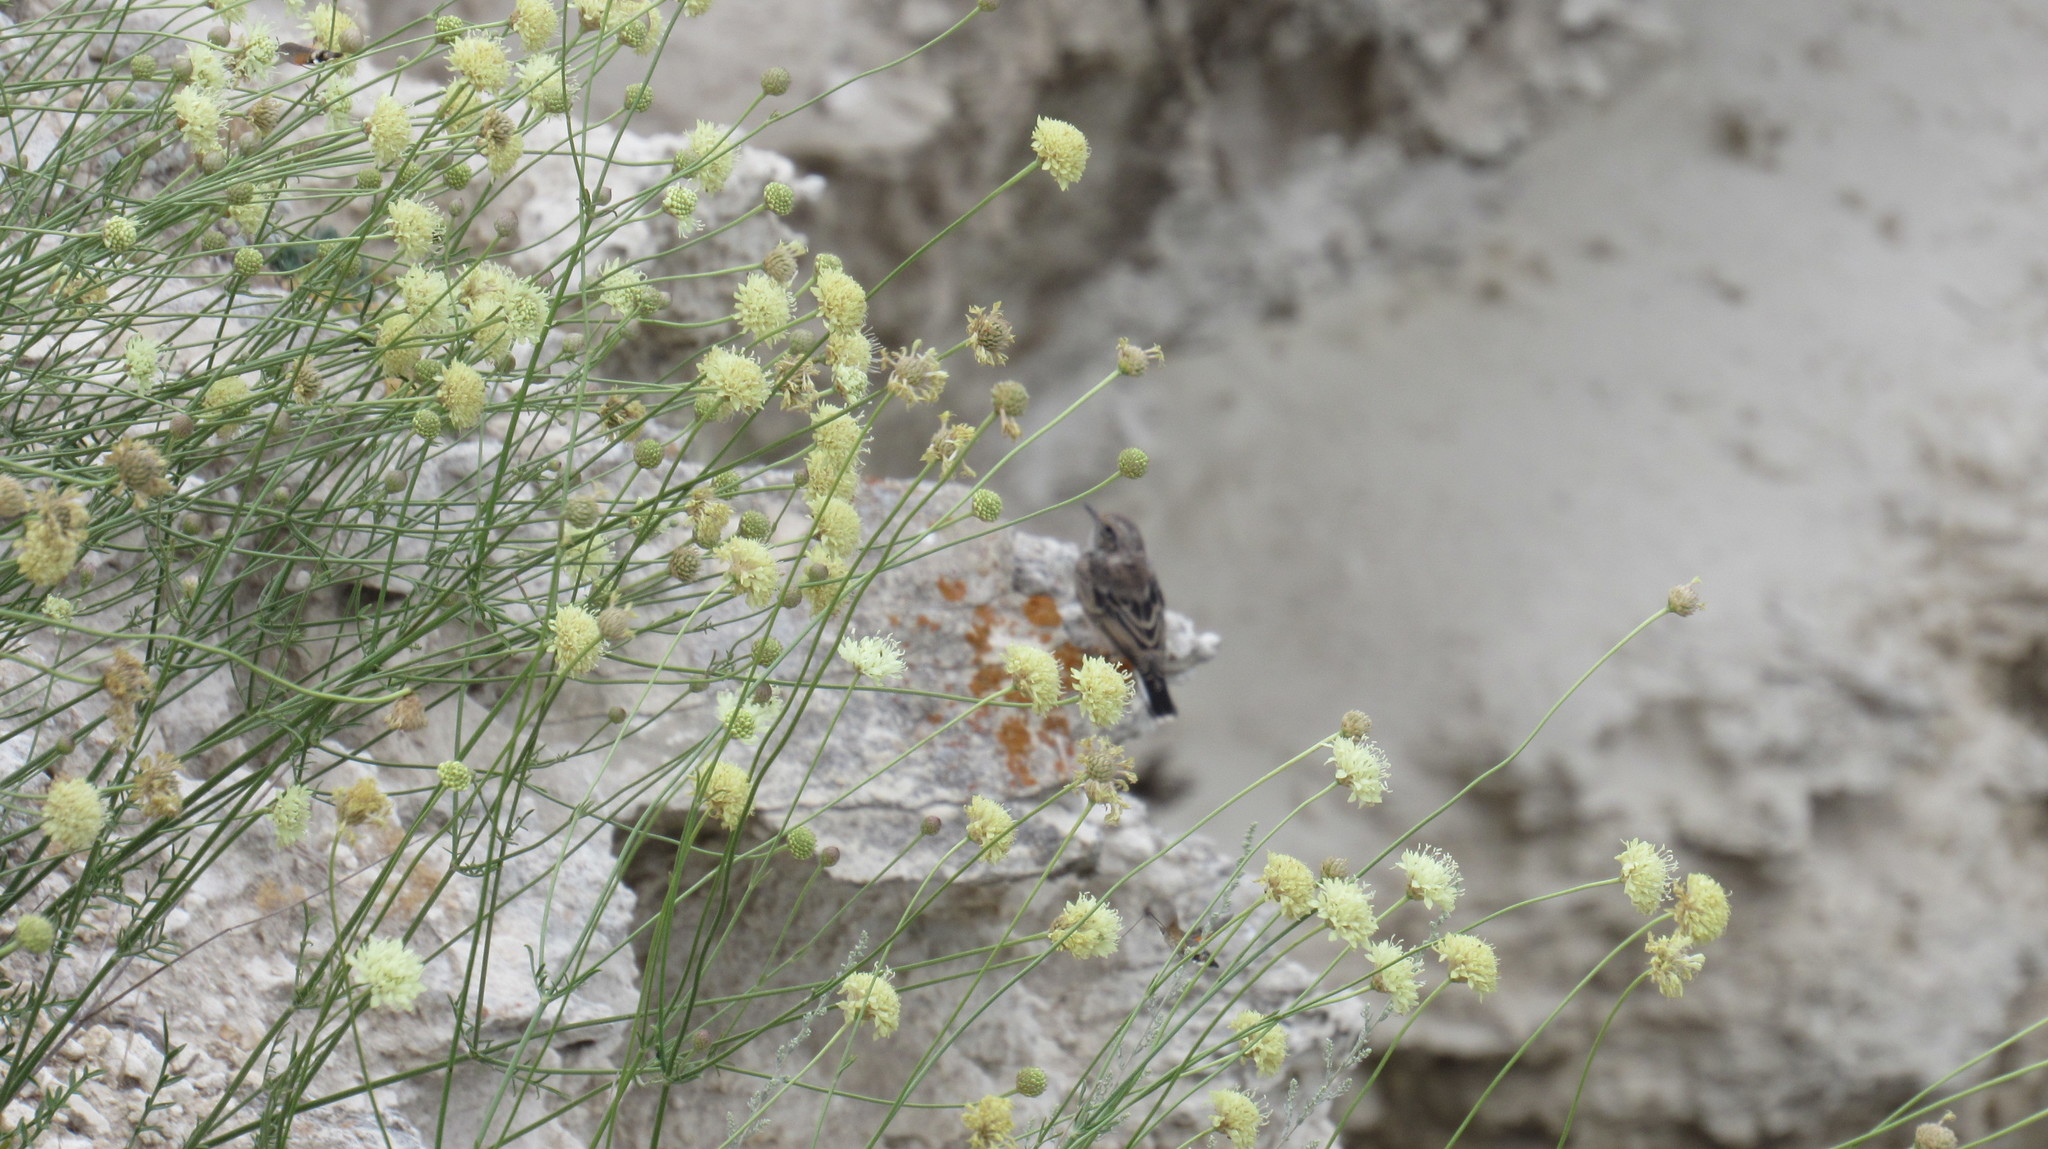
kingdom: Animalia
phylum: Chordata
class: Aves
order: Passeriformes
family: Muscicapidae
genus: Oenanthe
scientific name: Oenanthe pleschanka
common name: Pied wheatear
